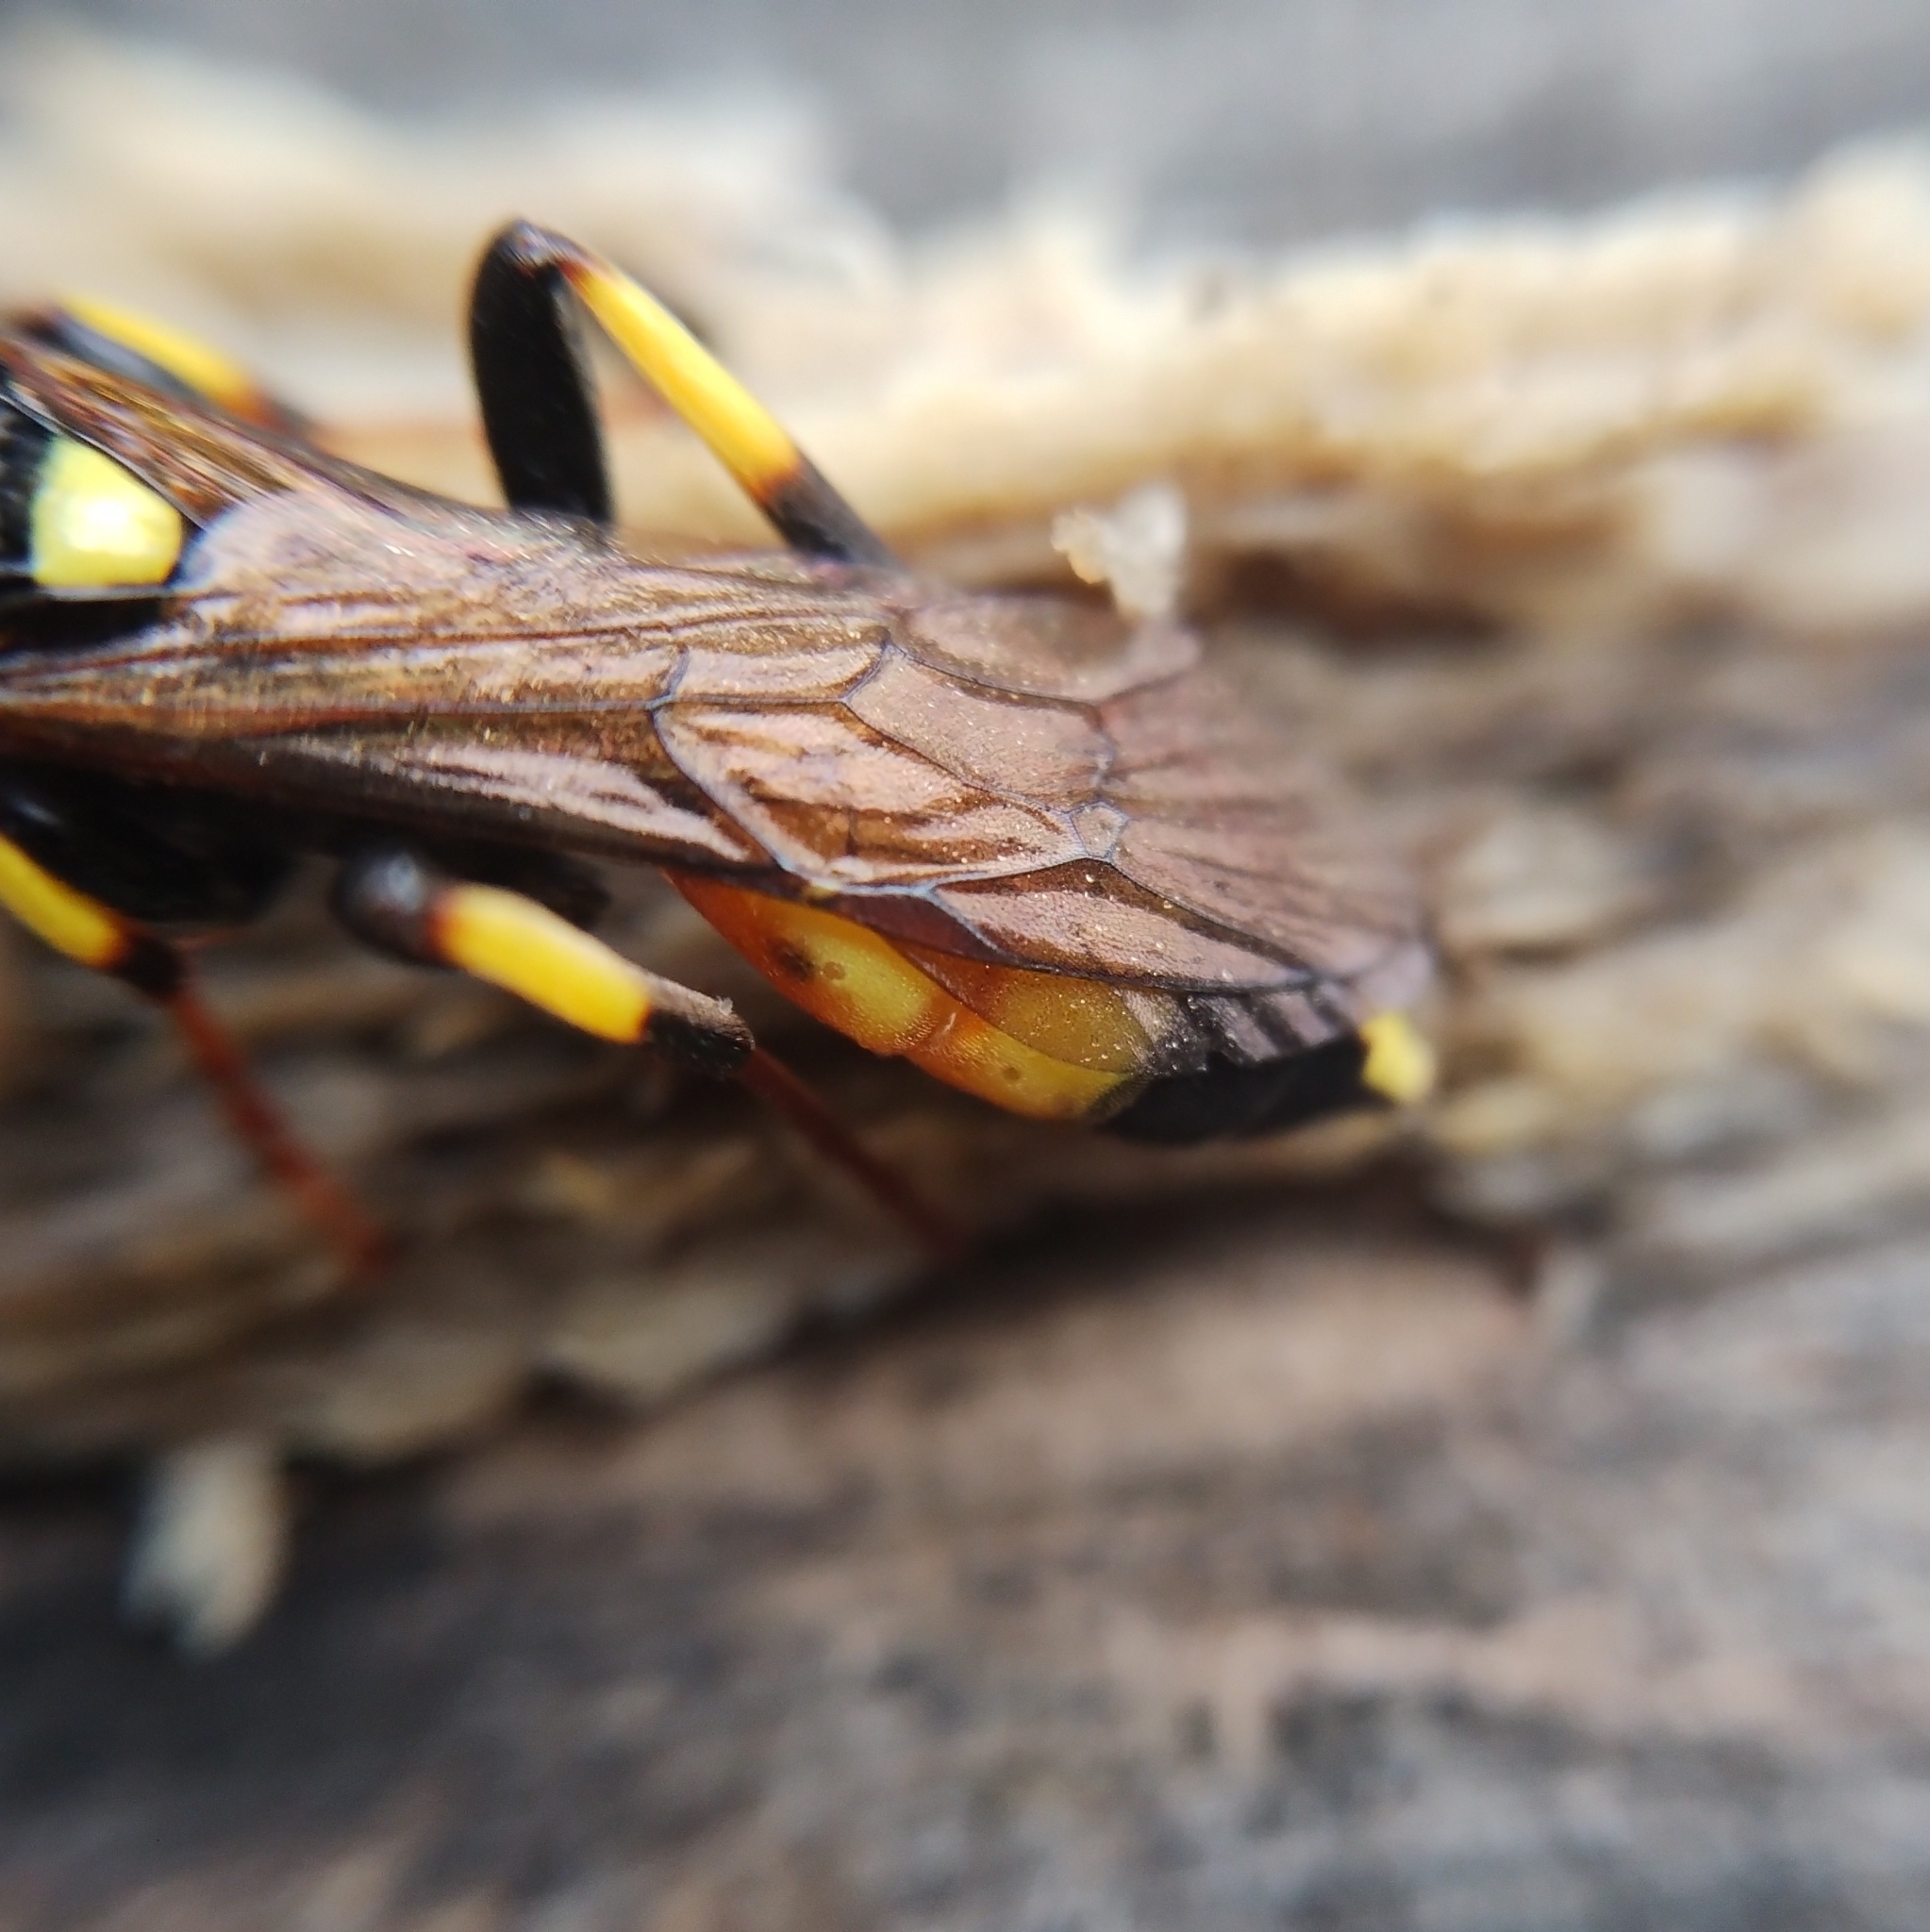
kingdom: Animalia
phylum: Arthropoda
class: Insecta
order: Hymenoptera
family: Ichneumonidae
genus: Ichneumon
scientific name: Ichneumon stramentor
